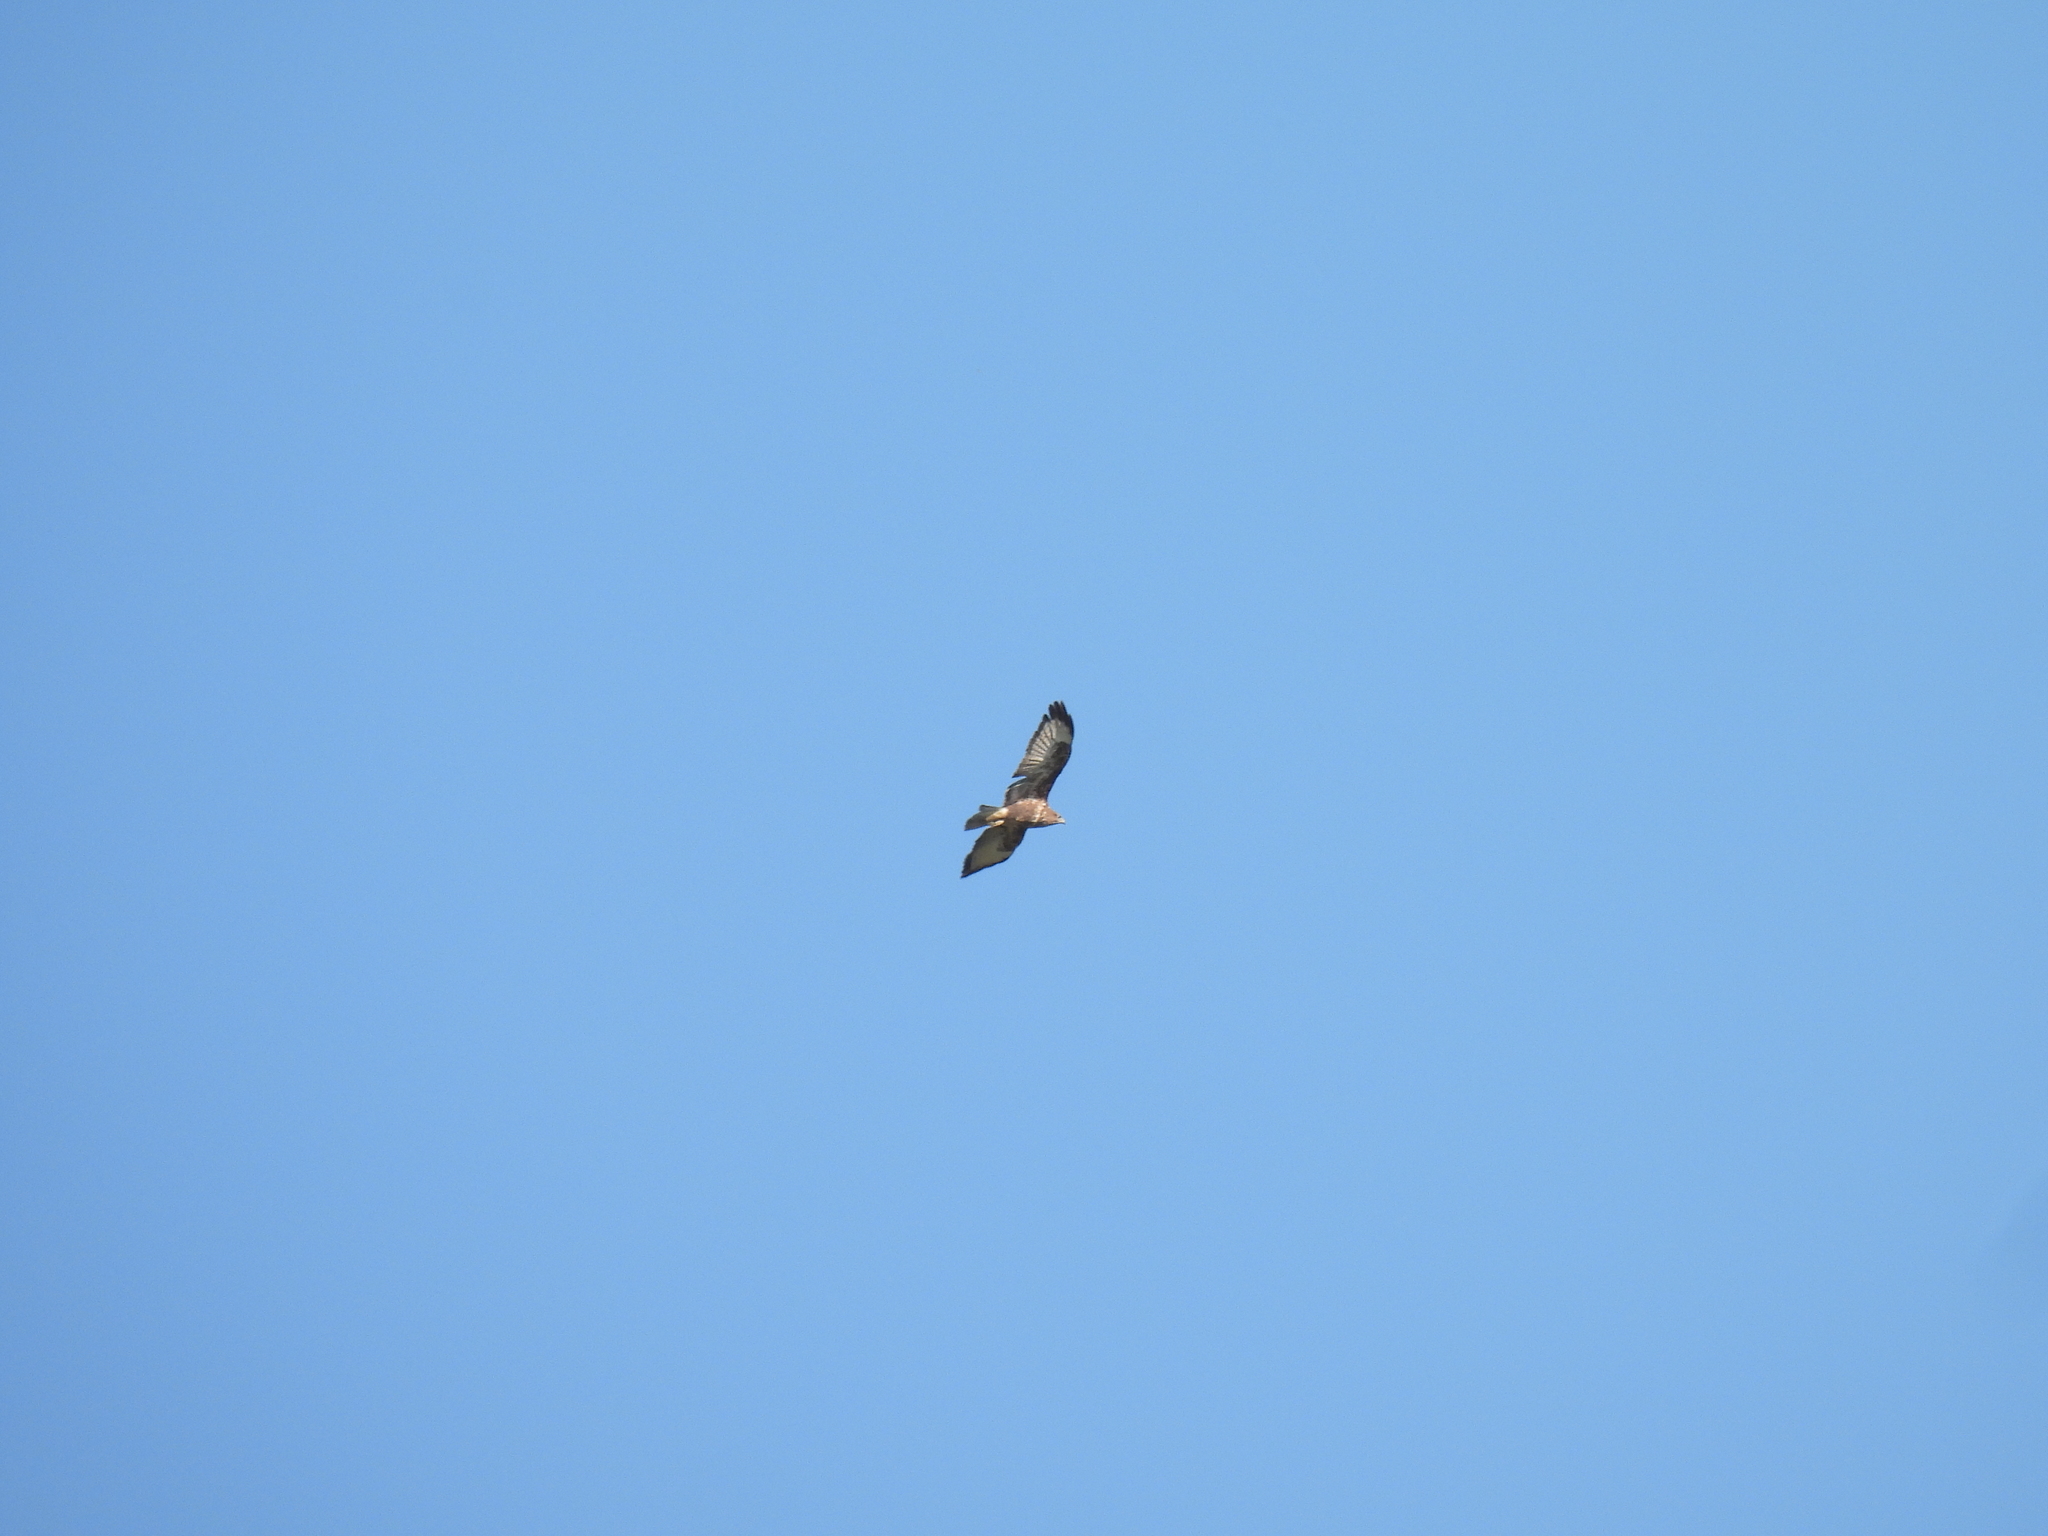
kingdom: Animalia
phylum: Chordata
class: Aves
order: Accipitriformes
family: Accipitridae
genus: Buteo
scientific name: Buteo buteo
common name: Common buzzard
